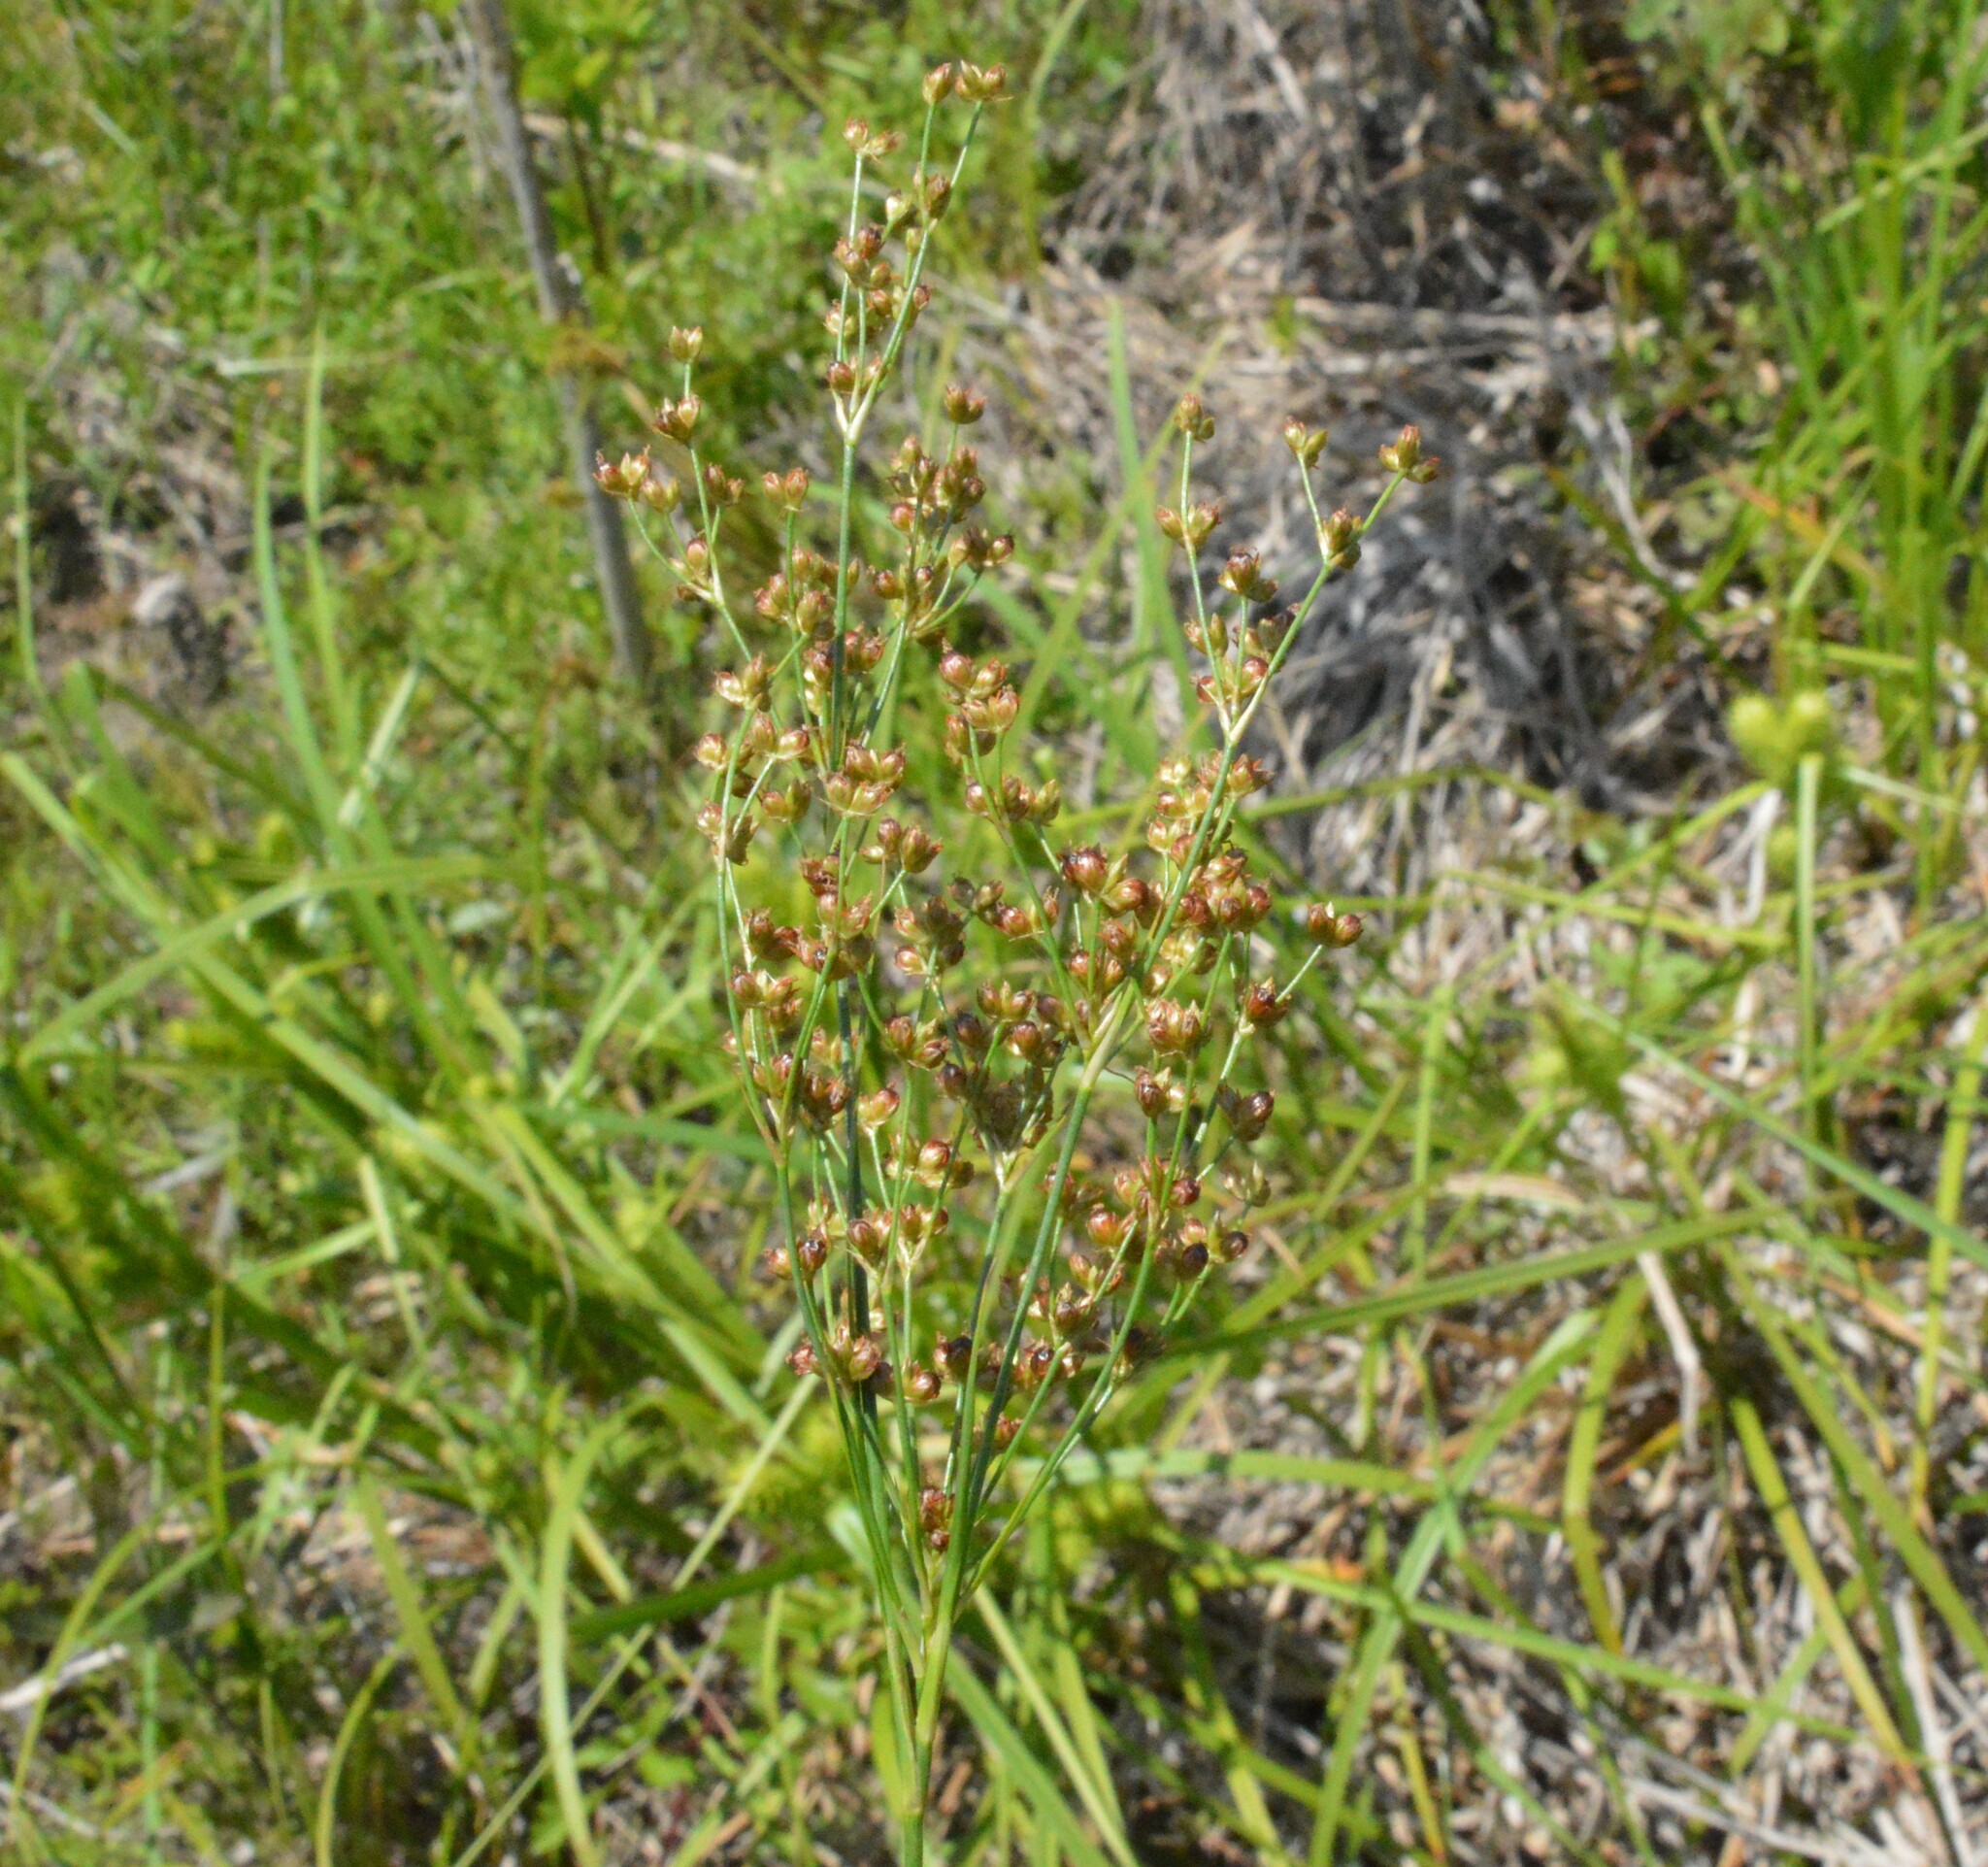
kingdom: Plantae
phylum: Tracheophyta
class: Liliopsida
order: Poales
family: Juncaceae
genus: Juncus
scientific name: Juncus marginatus
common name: Grass-leaf rush
